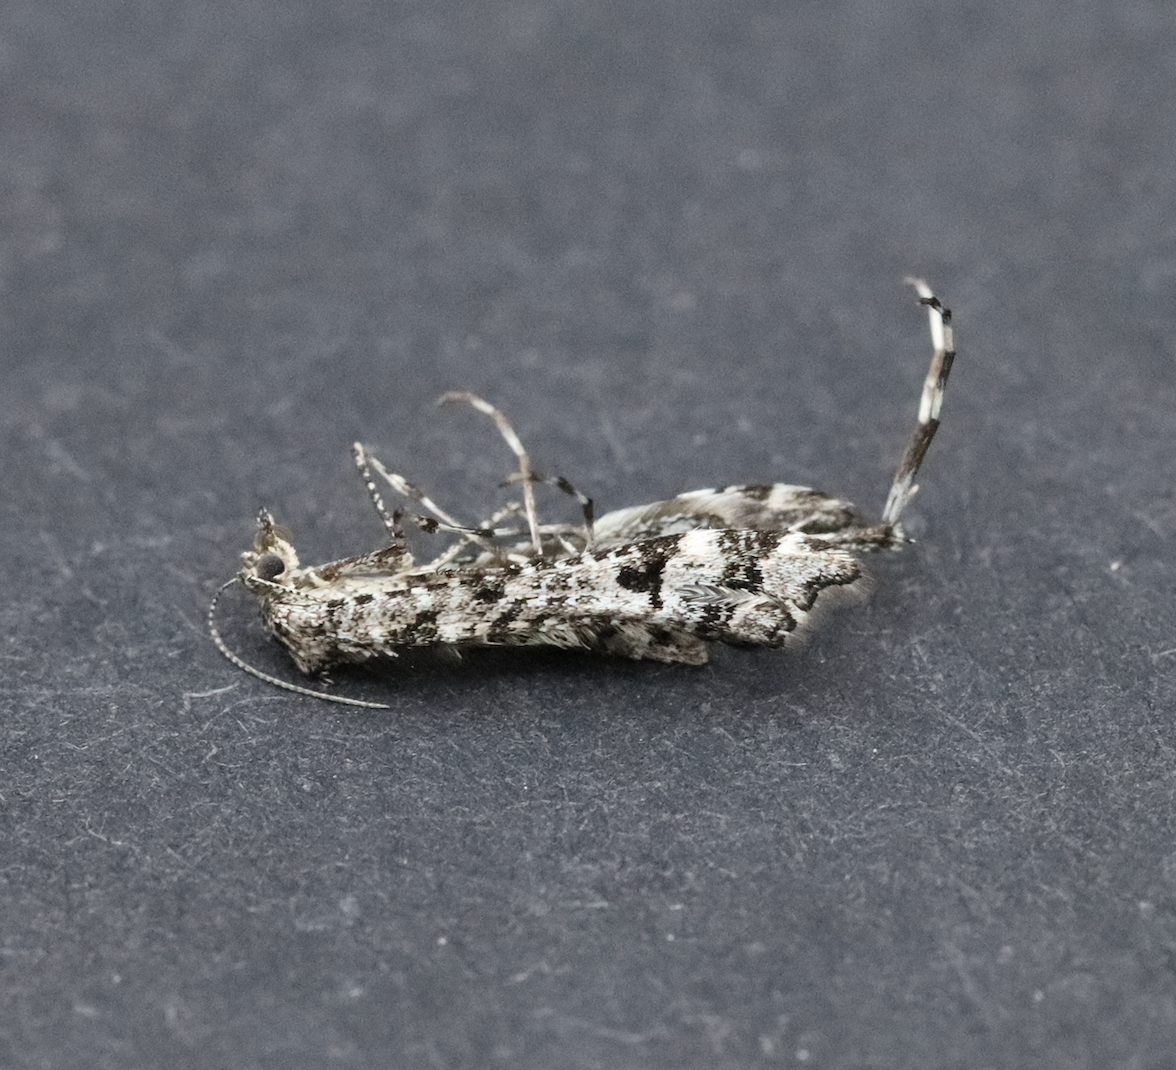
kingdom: Animalia
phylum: Arthropoda
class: Insecta
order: Lepidoptera
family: Pterophoridae
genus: Amblyptilia
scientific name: Amblyptilia pica
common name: Geranium plume moth
